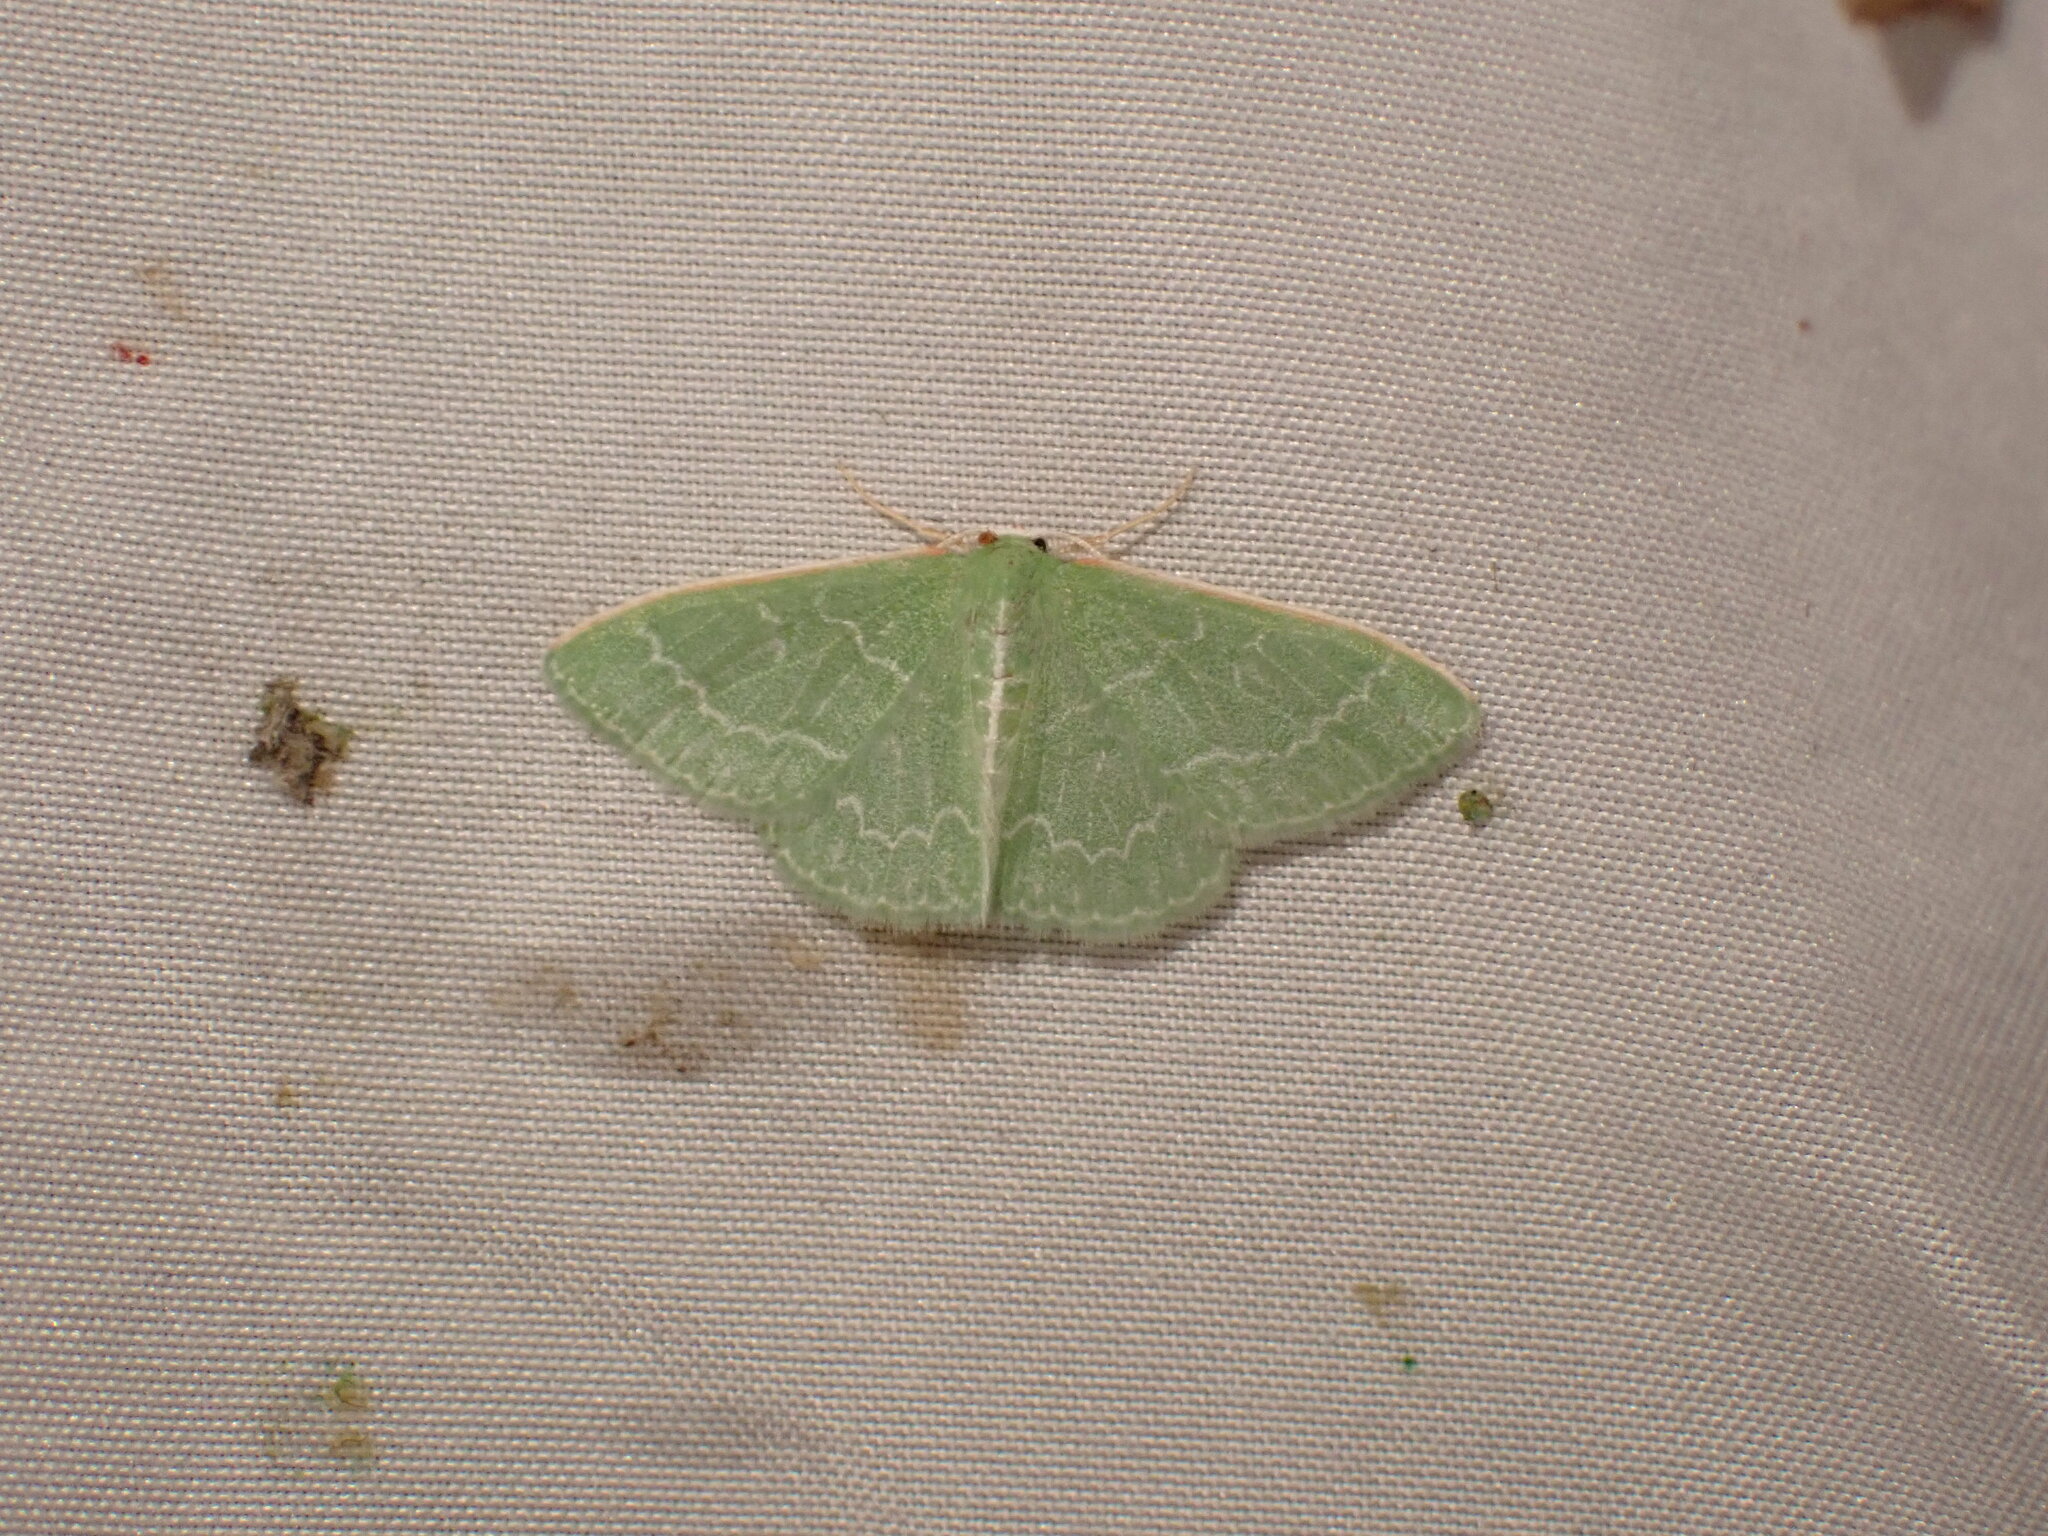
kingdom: Animalia
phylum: Arthropoda
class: Insecta
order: Lepidoptera
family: Geometridae
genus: Synchlora
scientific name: Synchlora aerata
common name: Wavy-lined emerald
